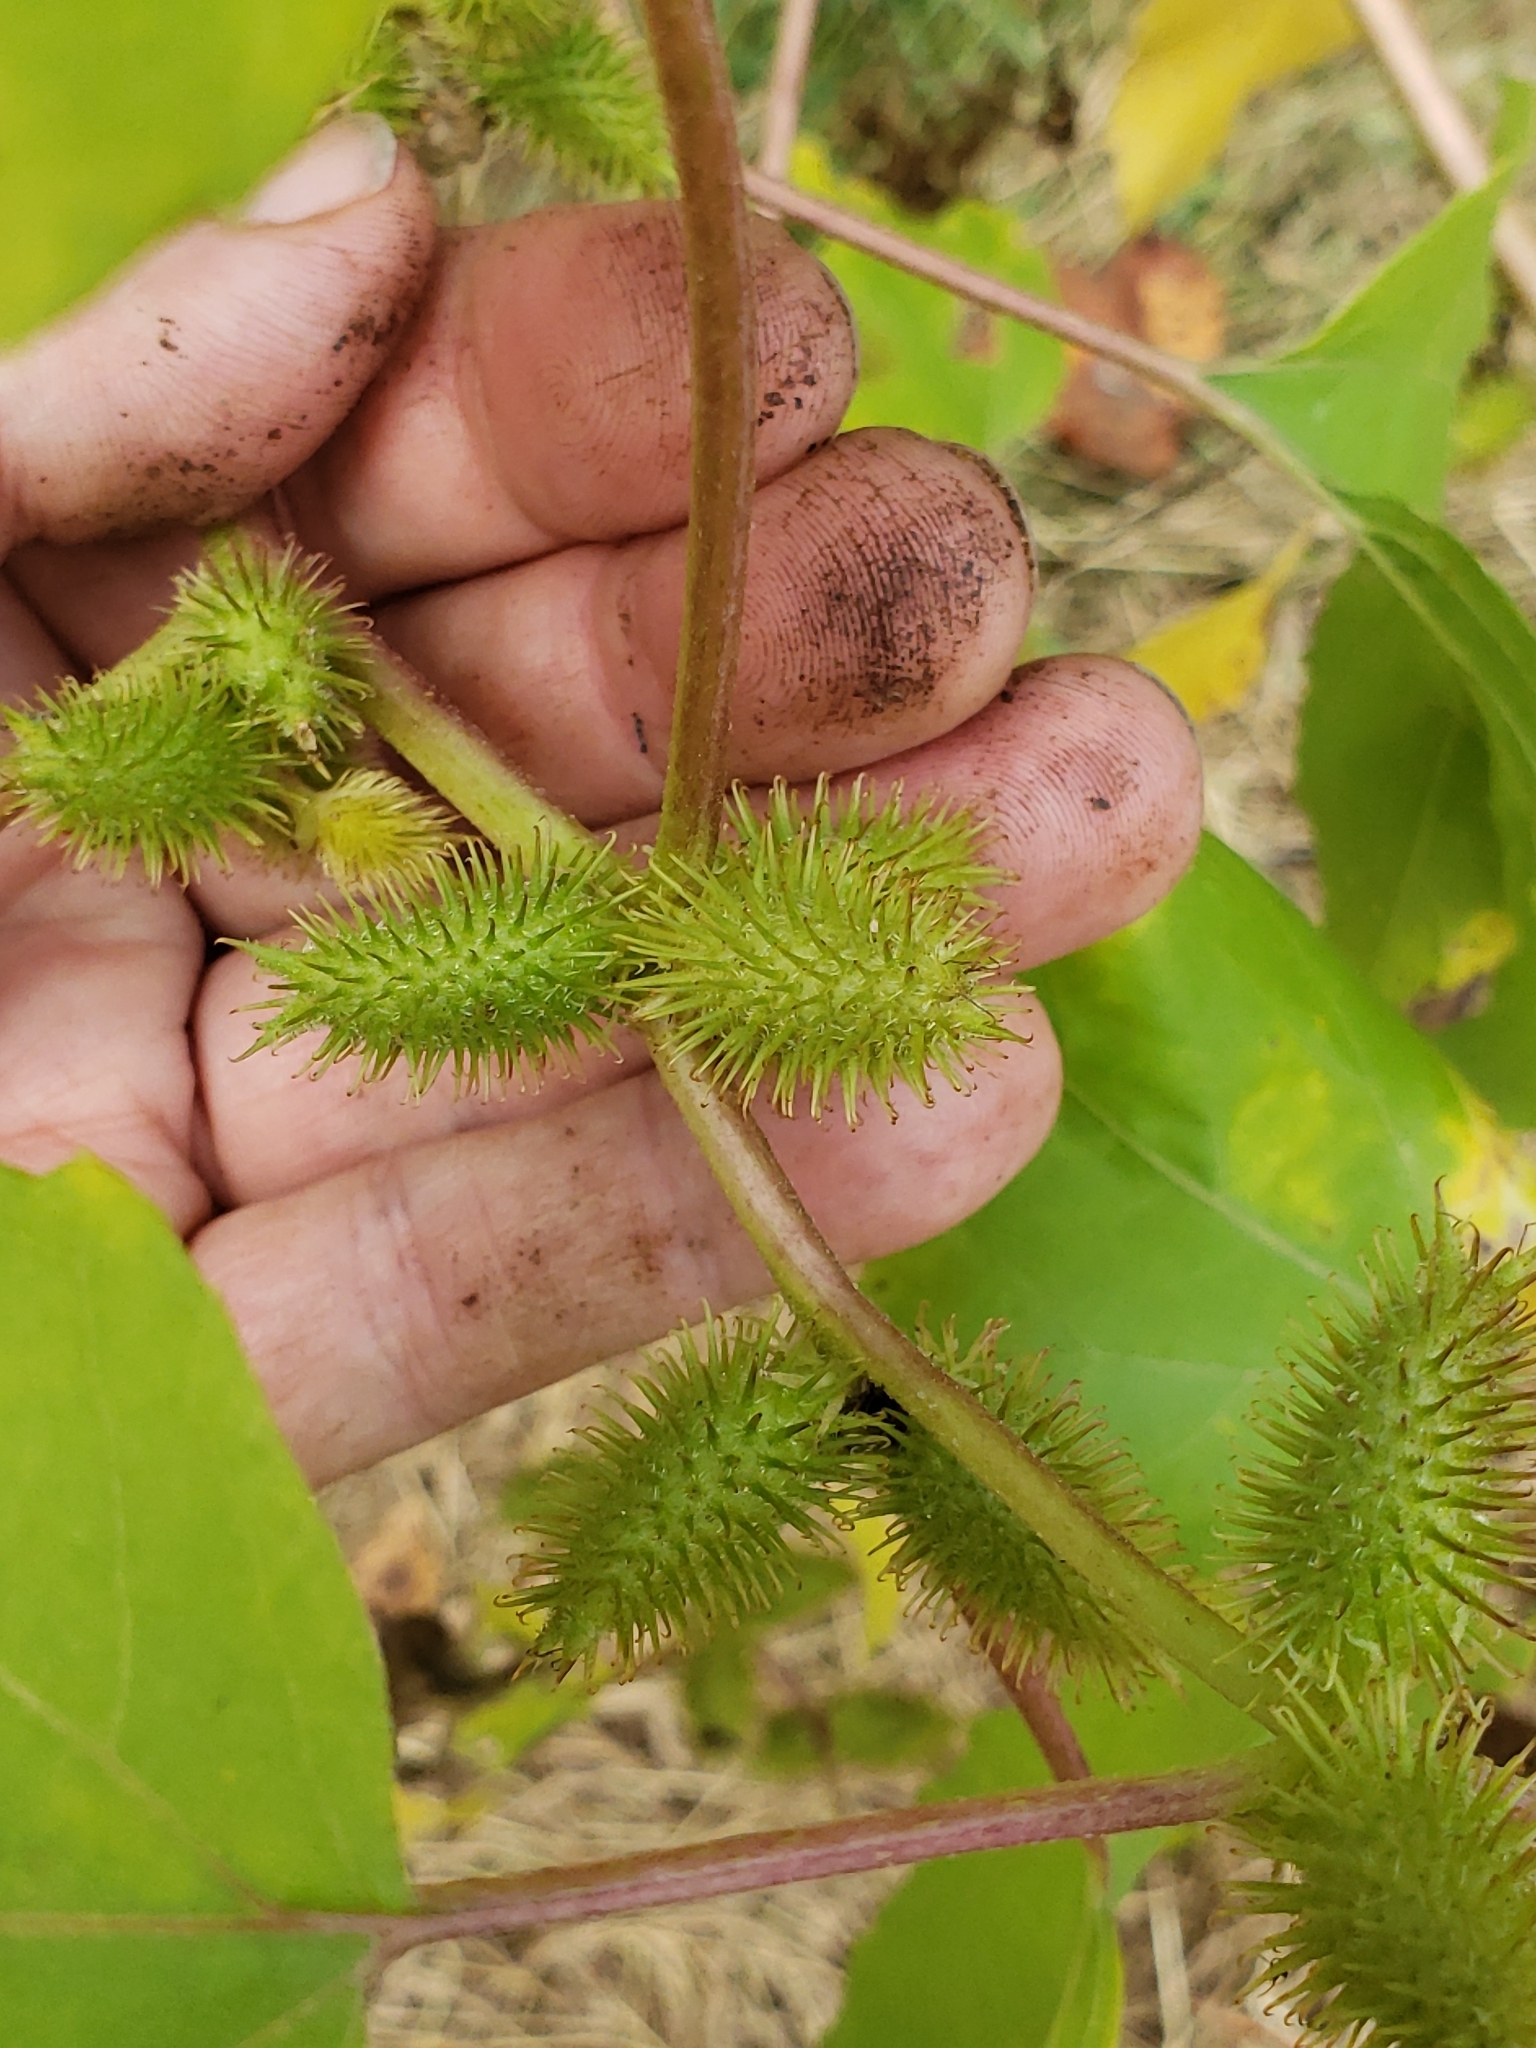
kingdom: Plantae
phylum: Tracheophyta
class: Magnoliopsida
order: Asterales
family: Asteraceae
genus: Xanthium
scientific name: Xanthium strumarium
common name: Rough cocklebur
